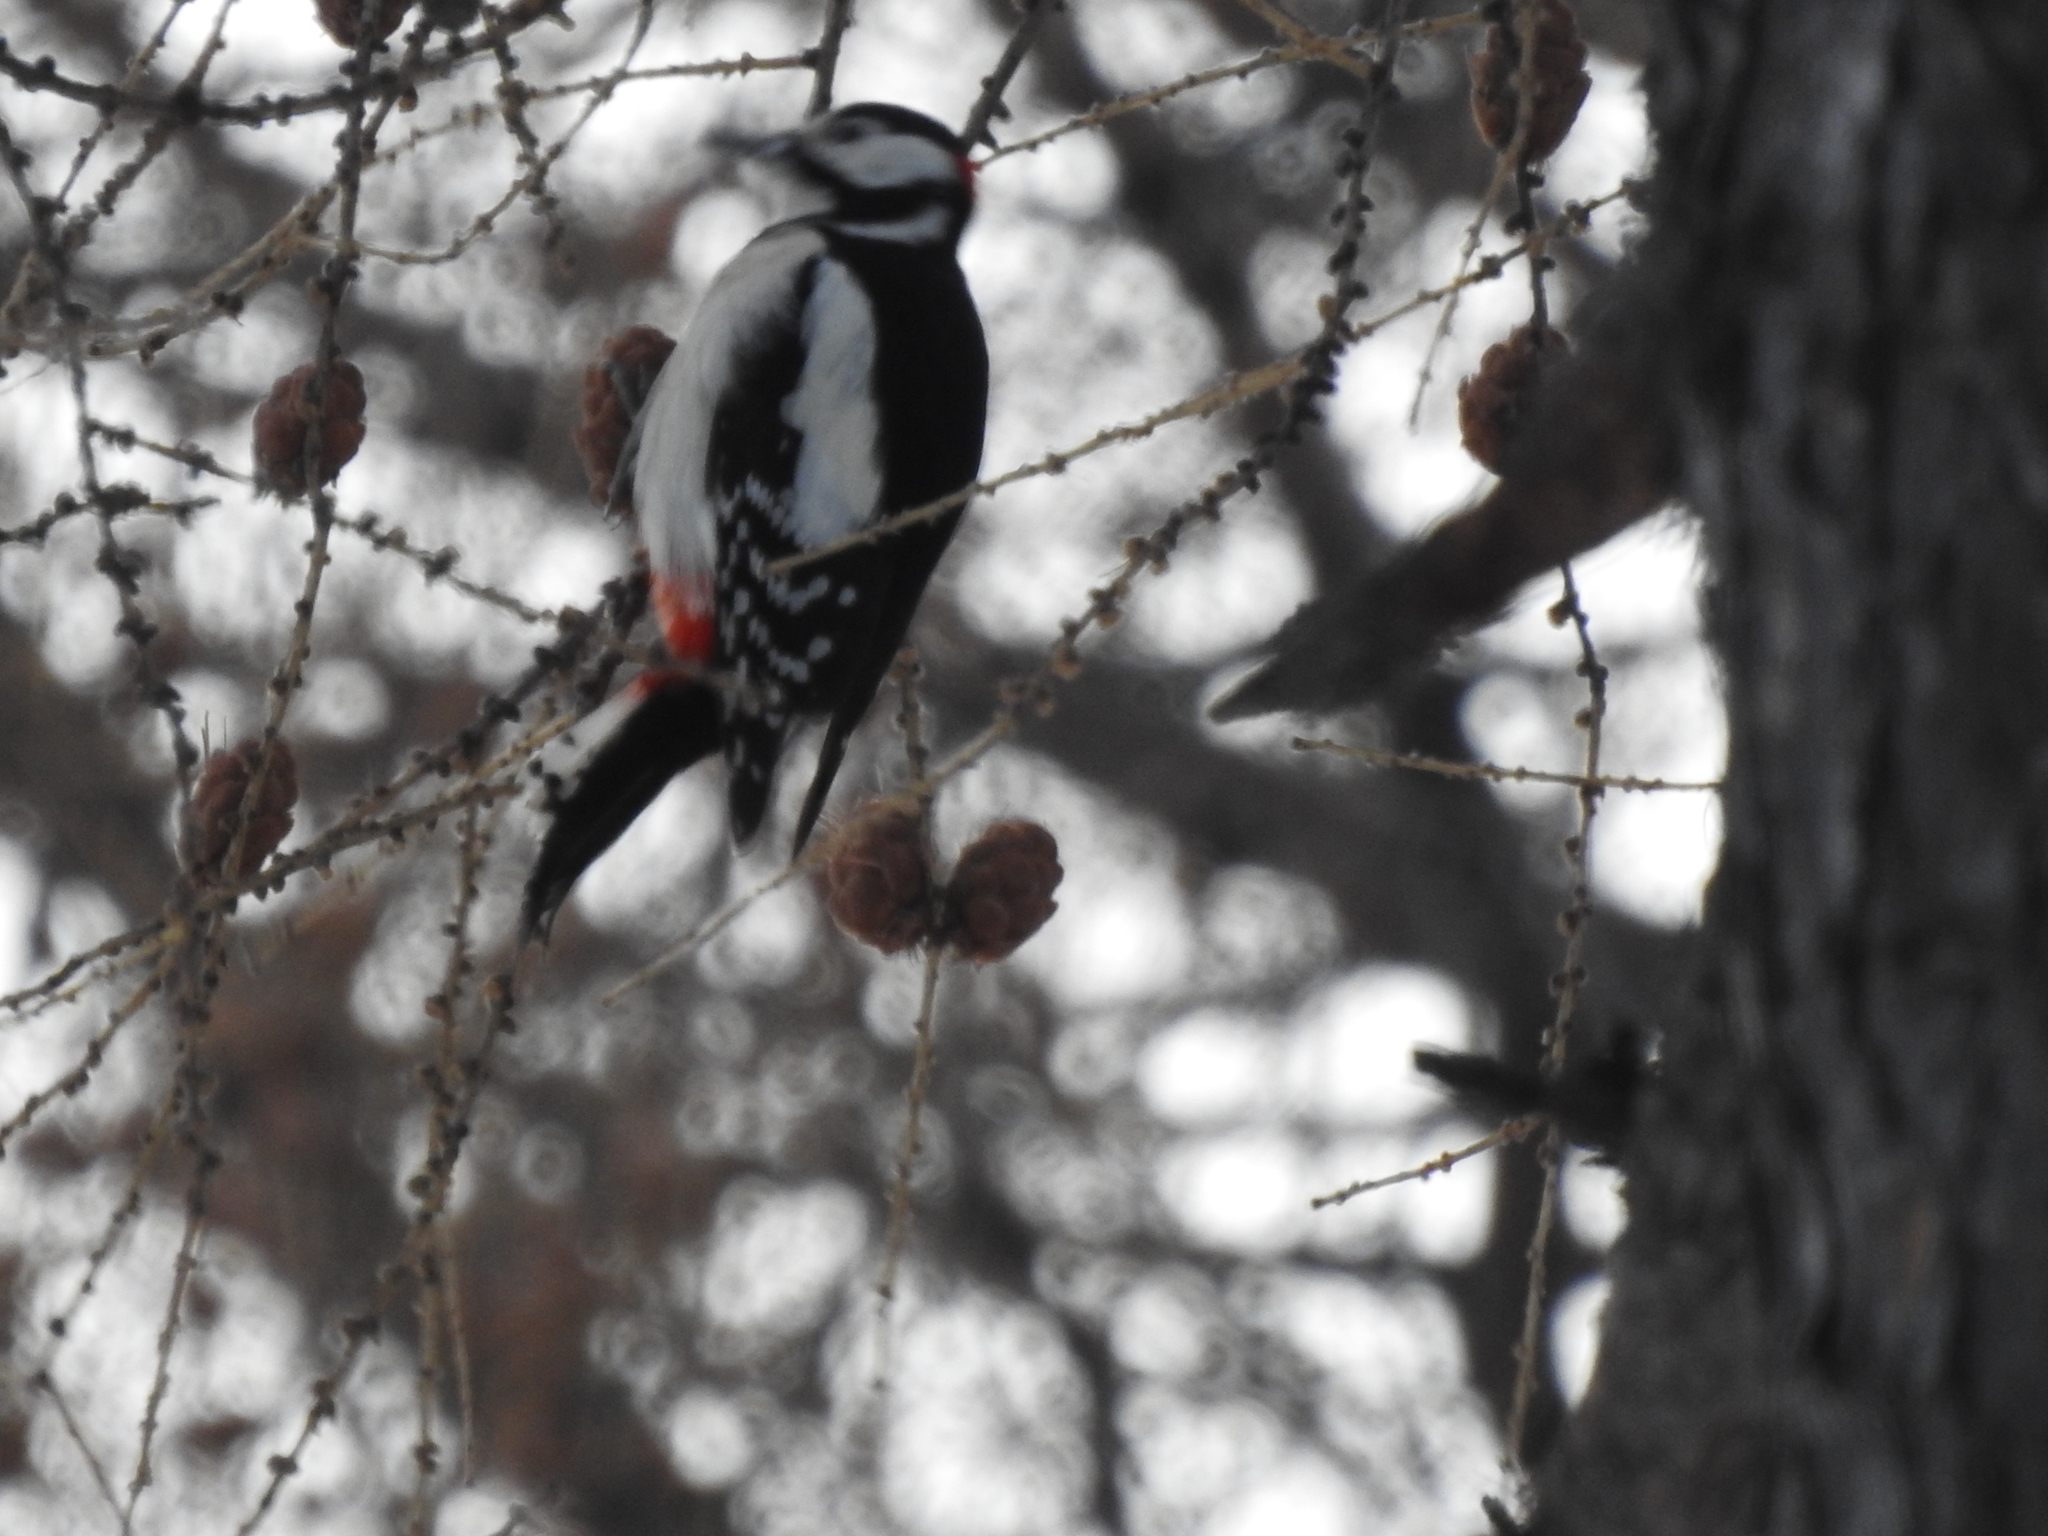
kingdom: Animalia
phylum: Chordata
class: Aves
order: Piciformes
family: Picidae
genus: Dendrocopos
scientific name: Dendrocopos major
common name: Great spotted woodpecker
